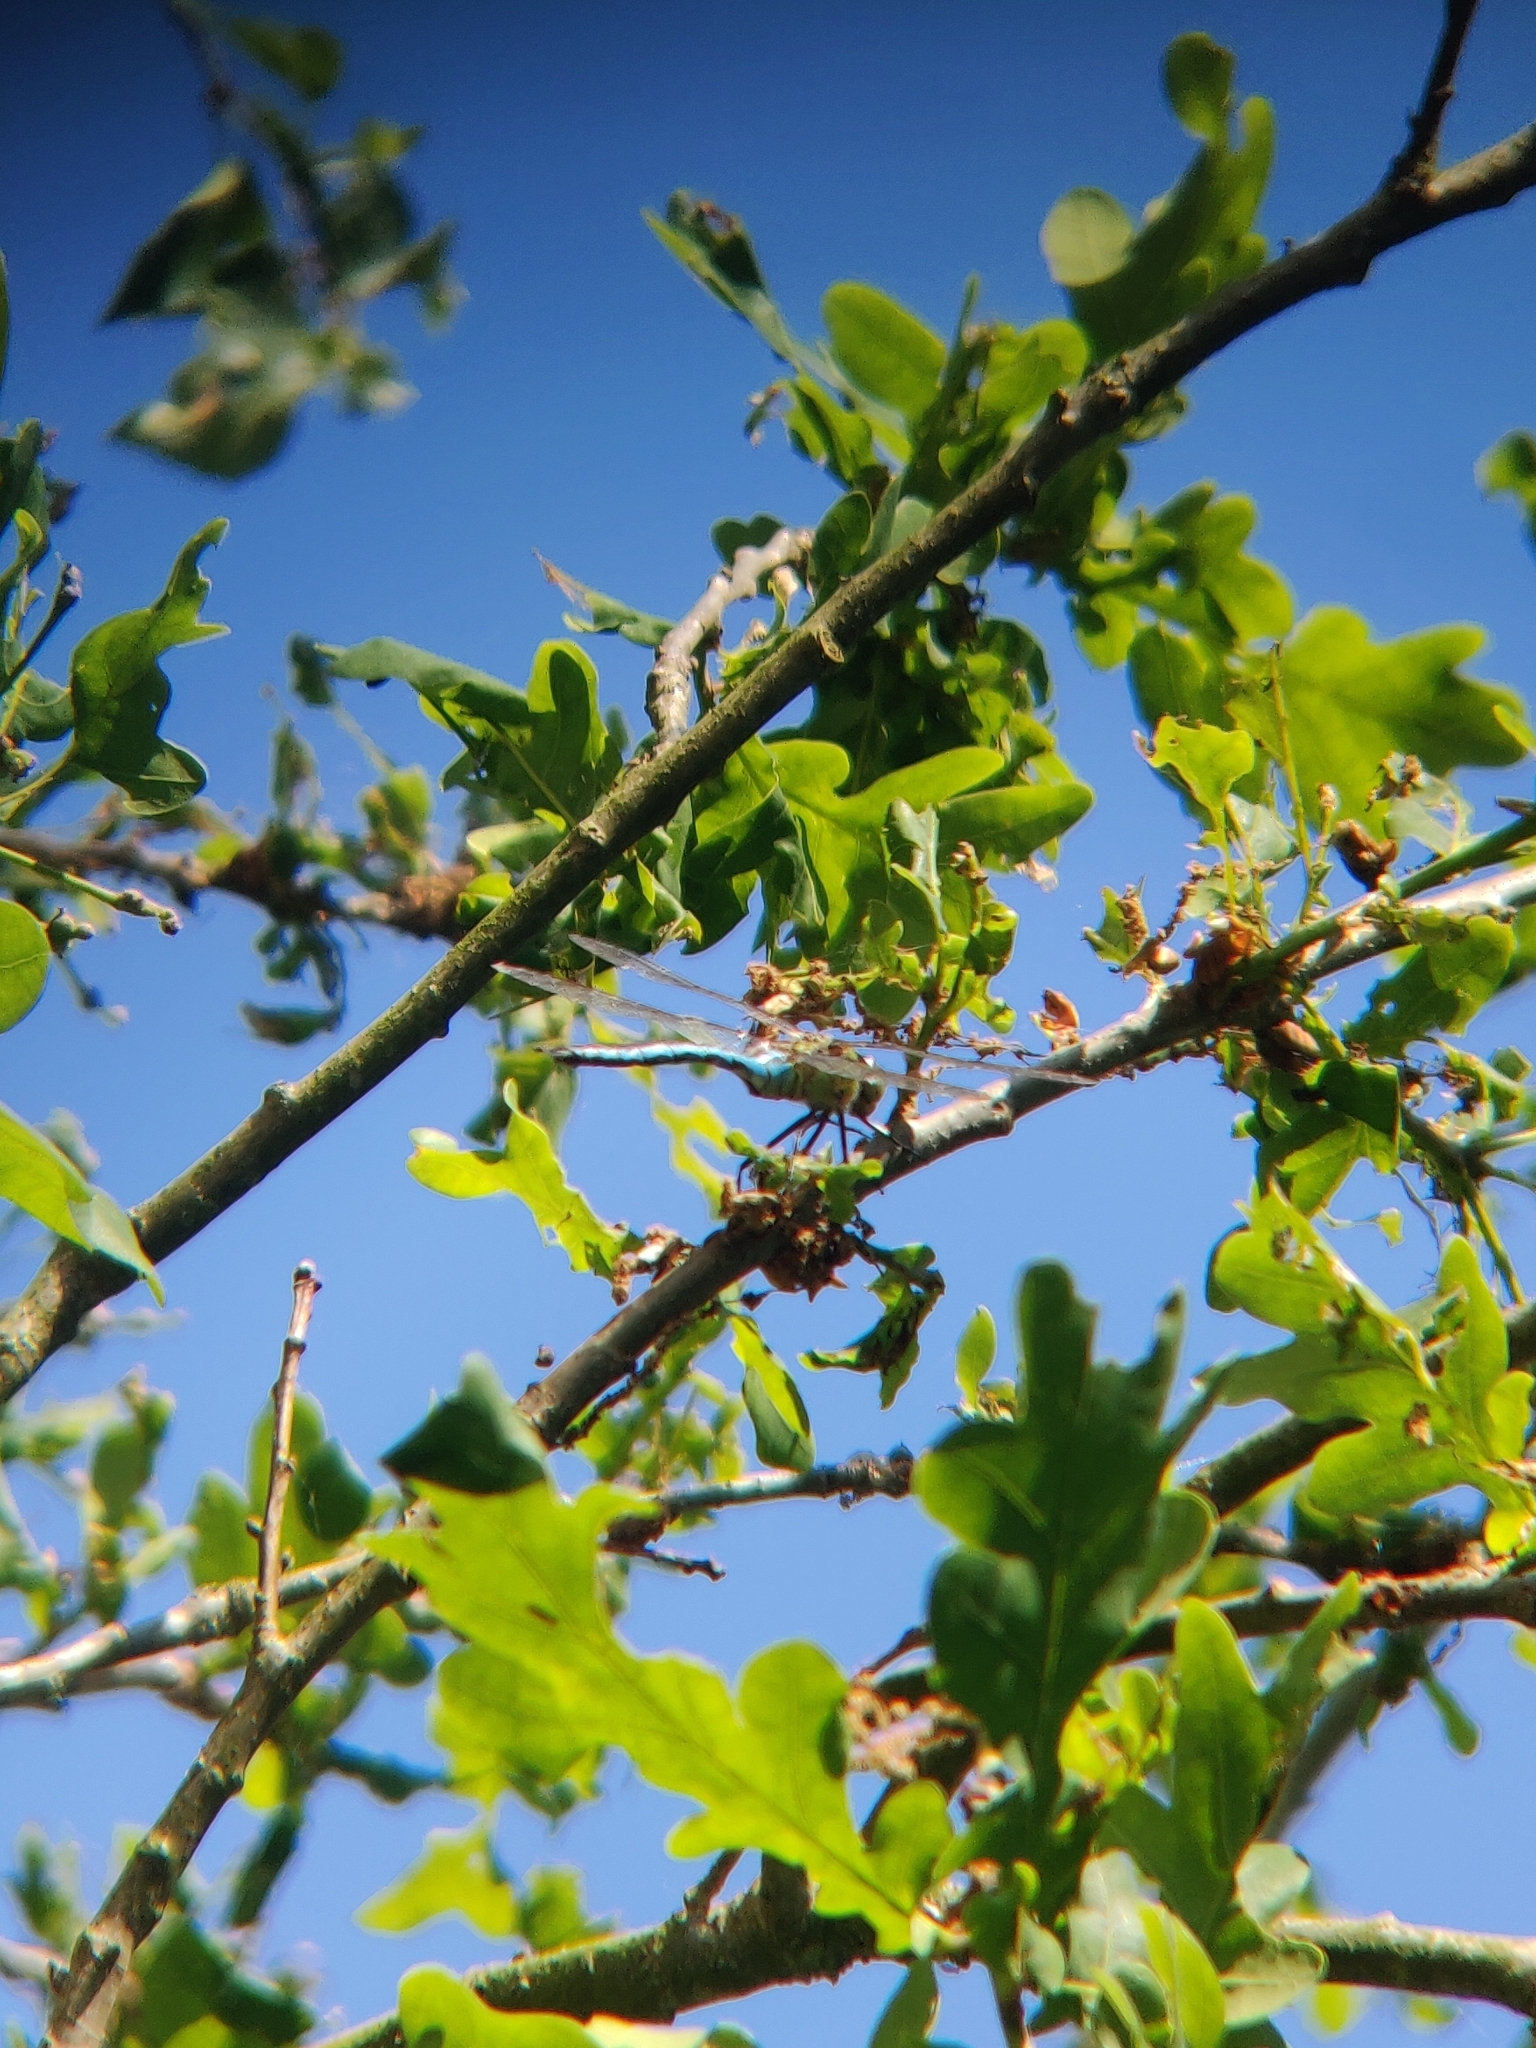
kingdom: Animalia
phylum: Arthropoda
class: Insecta
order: Odonata
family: Aeshnidae
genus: Anax
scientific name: Anax imperator
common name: Emperor dragonfly
